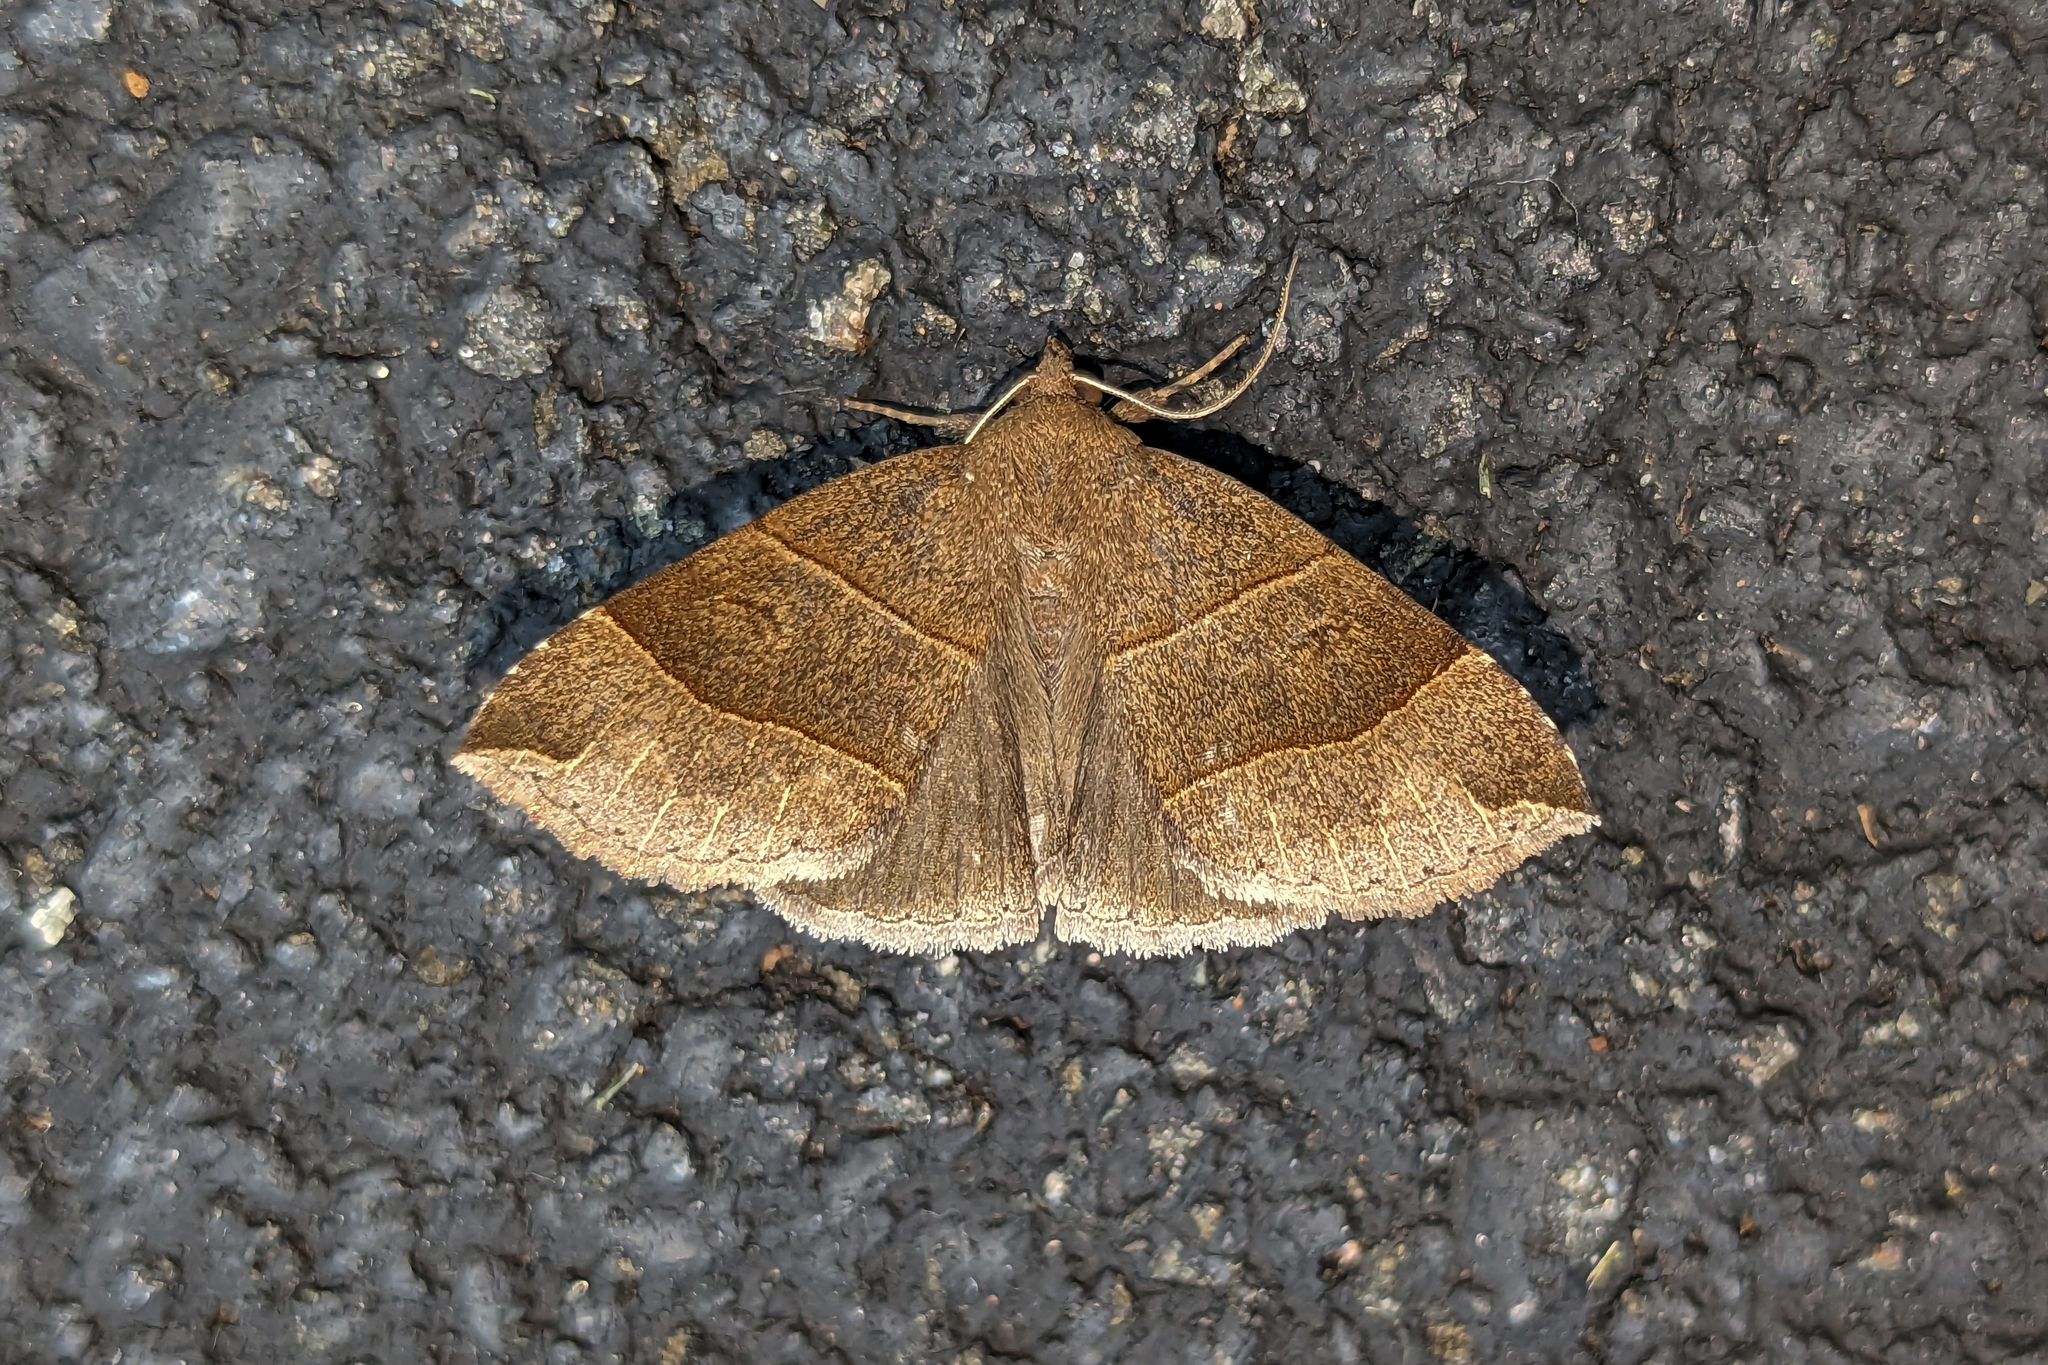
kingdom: Animalia
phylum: Arthropoda
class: Insecta
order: Lepidoptera
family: Erebidae
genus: Parallelia
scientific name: Parallelia bistriaris
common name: Maple looper moth
